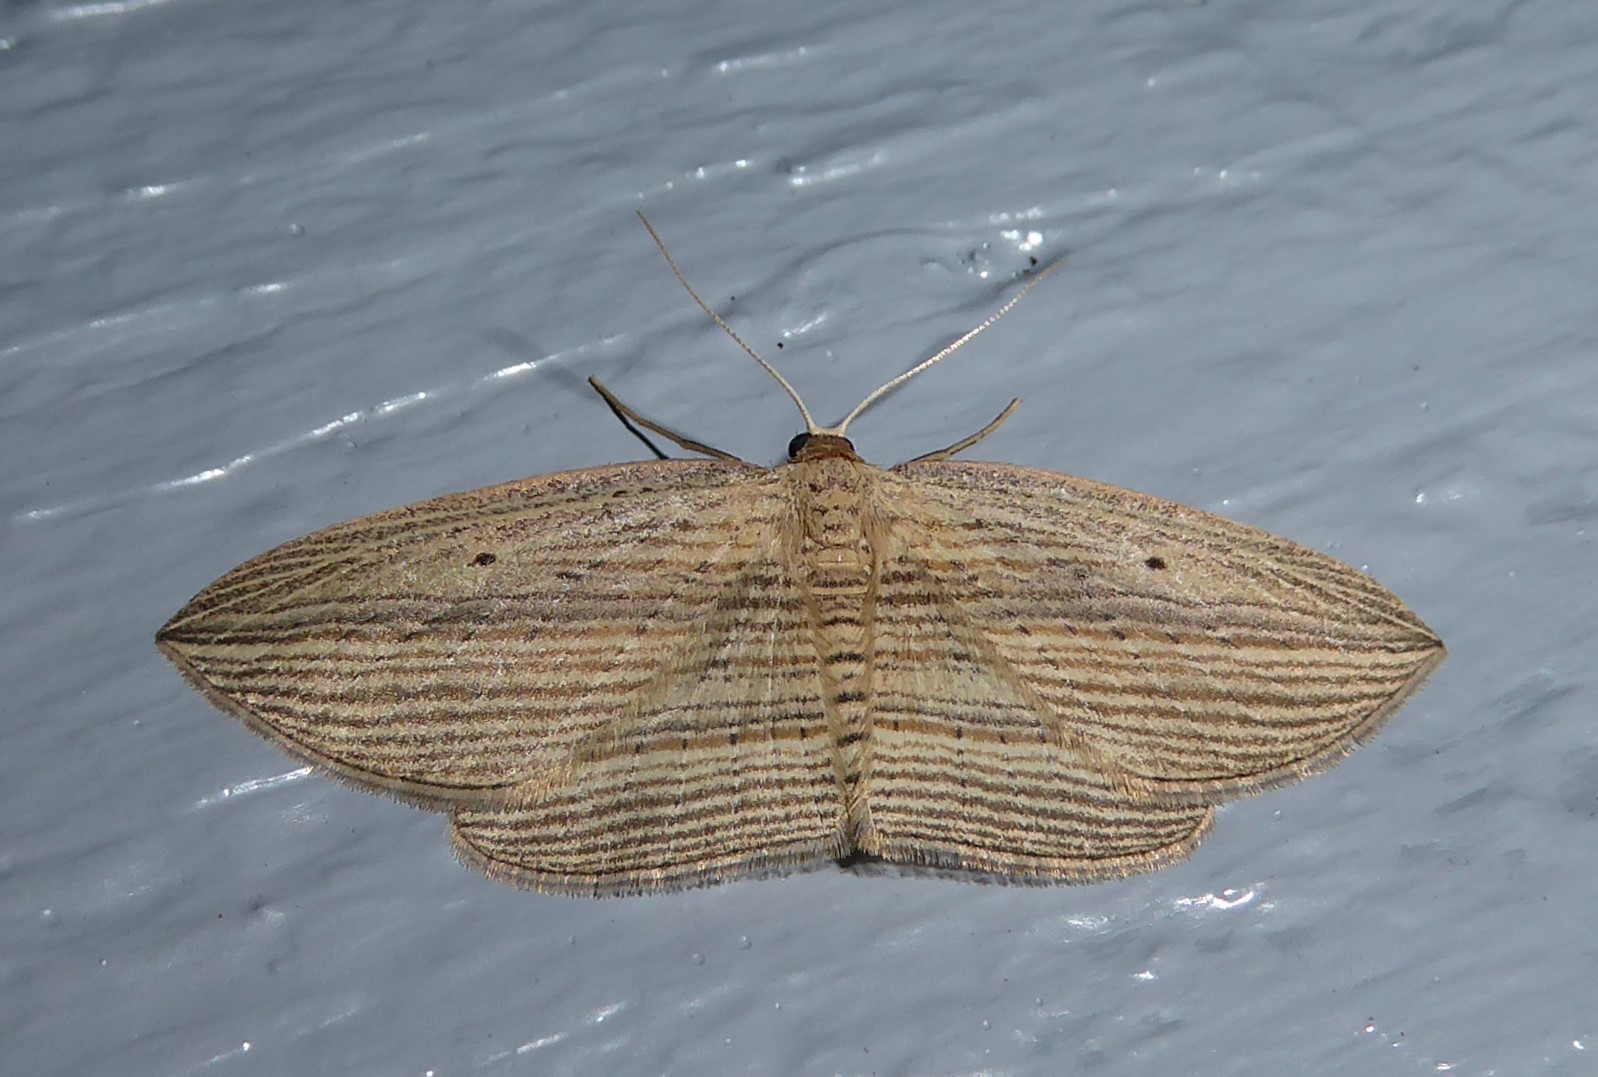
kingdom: Animalia
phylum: Arthropoda
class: Insecta
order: Lepidoptera
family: Geometridae
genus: Epiphryne
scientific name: Epiphryne verriculata
